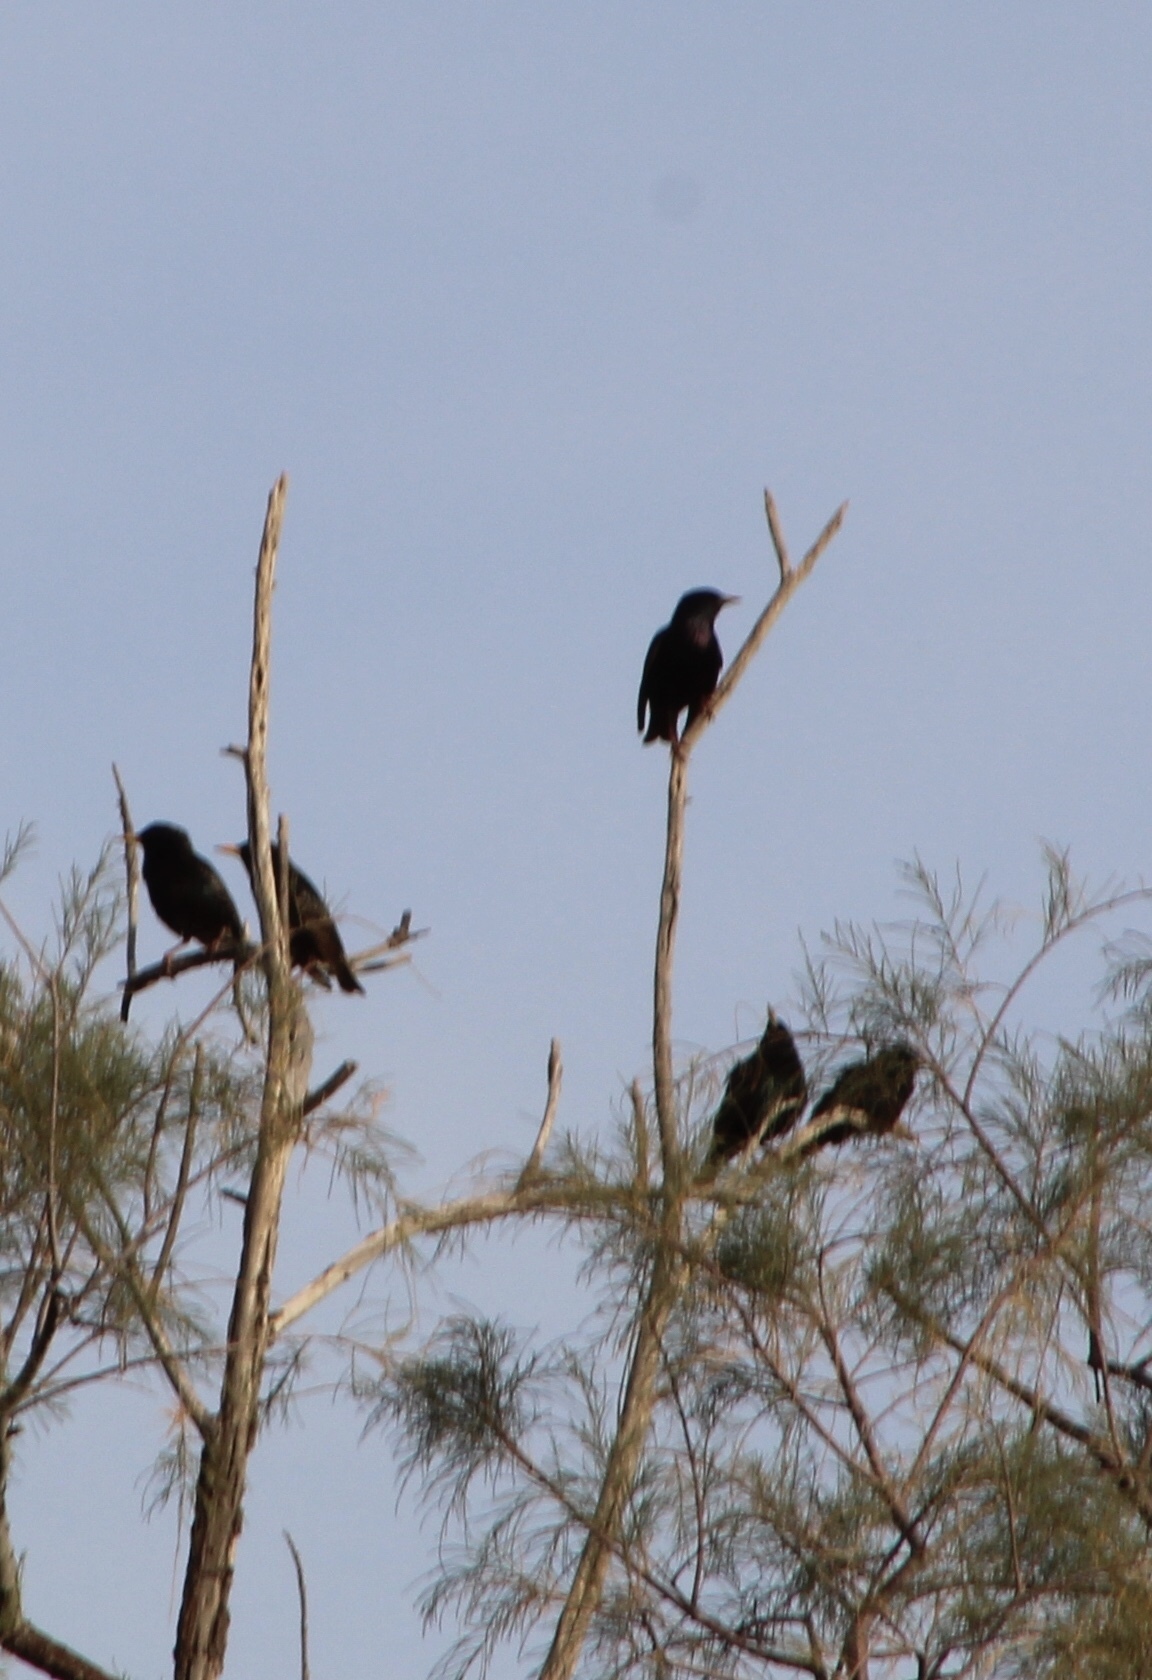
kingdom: Animalia
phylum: Chordata
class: Aves
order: Passeriformes
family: Sturnidae
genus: Sturnus
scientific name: Sturnus vulgaris
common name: Common starling
